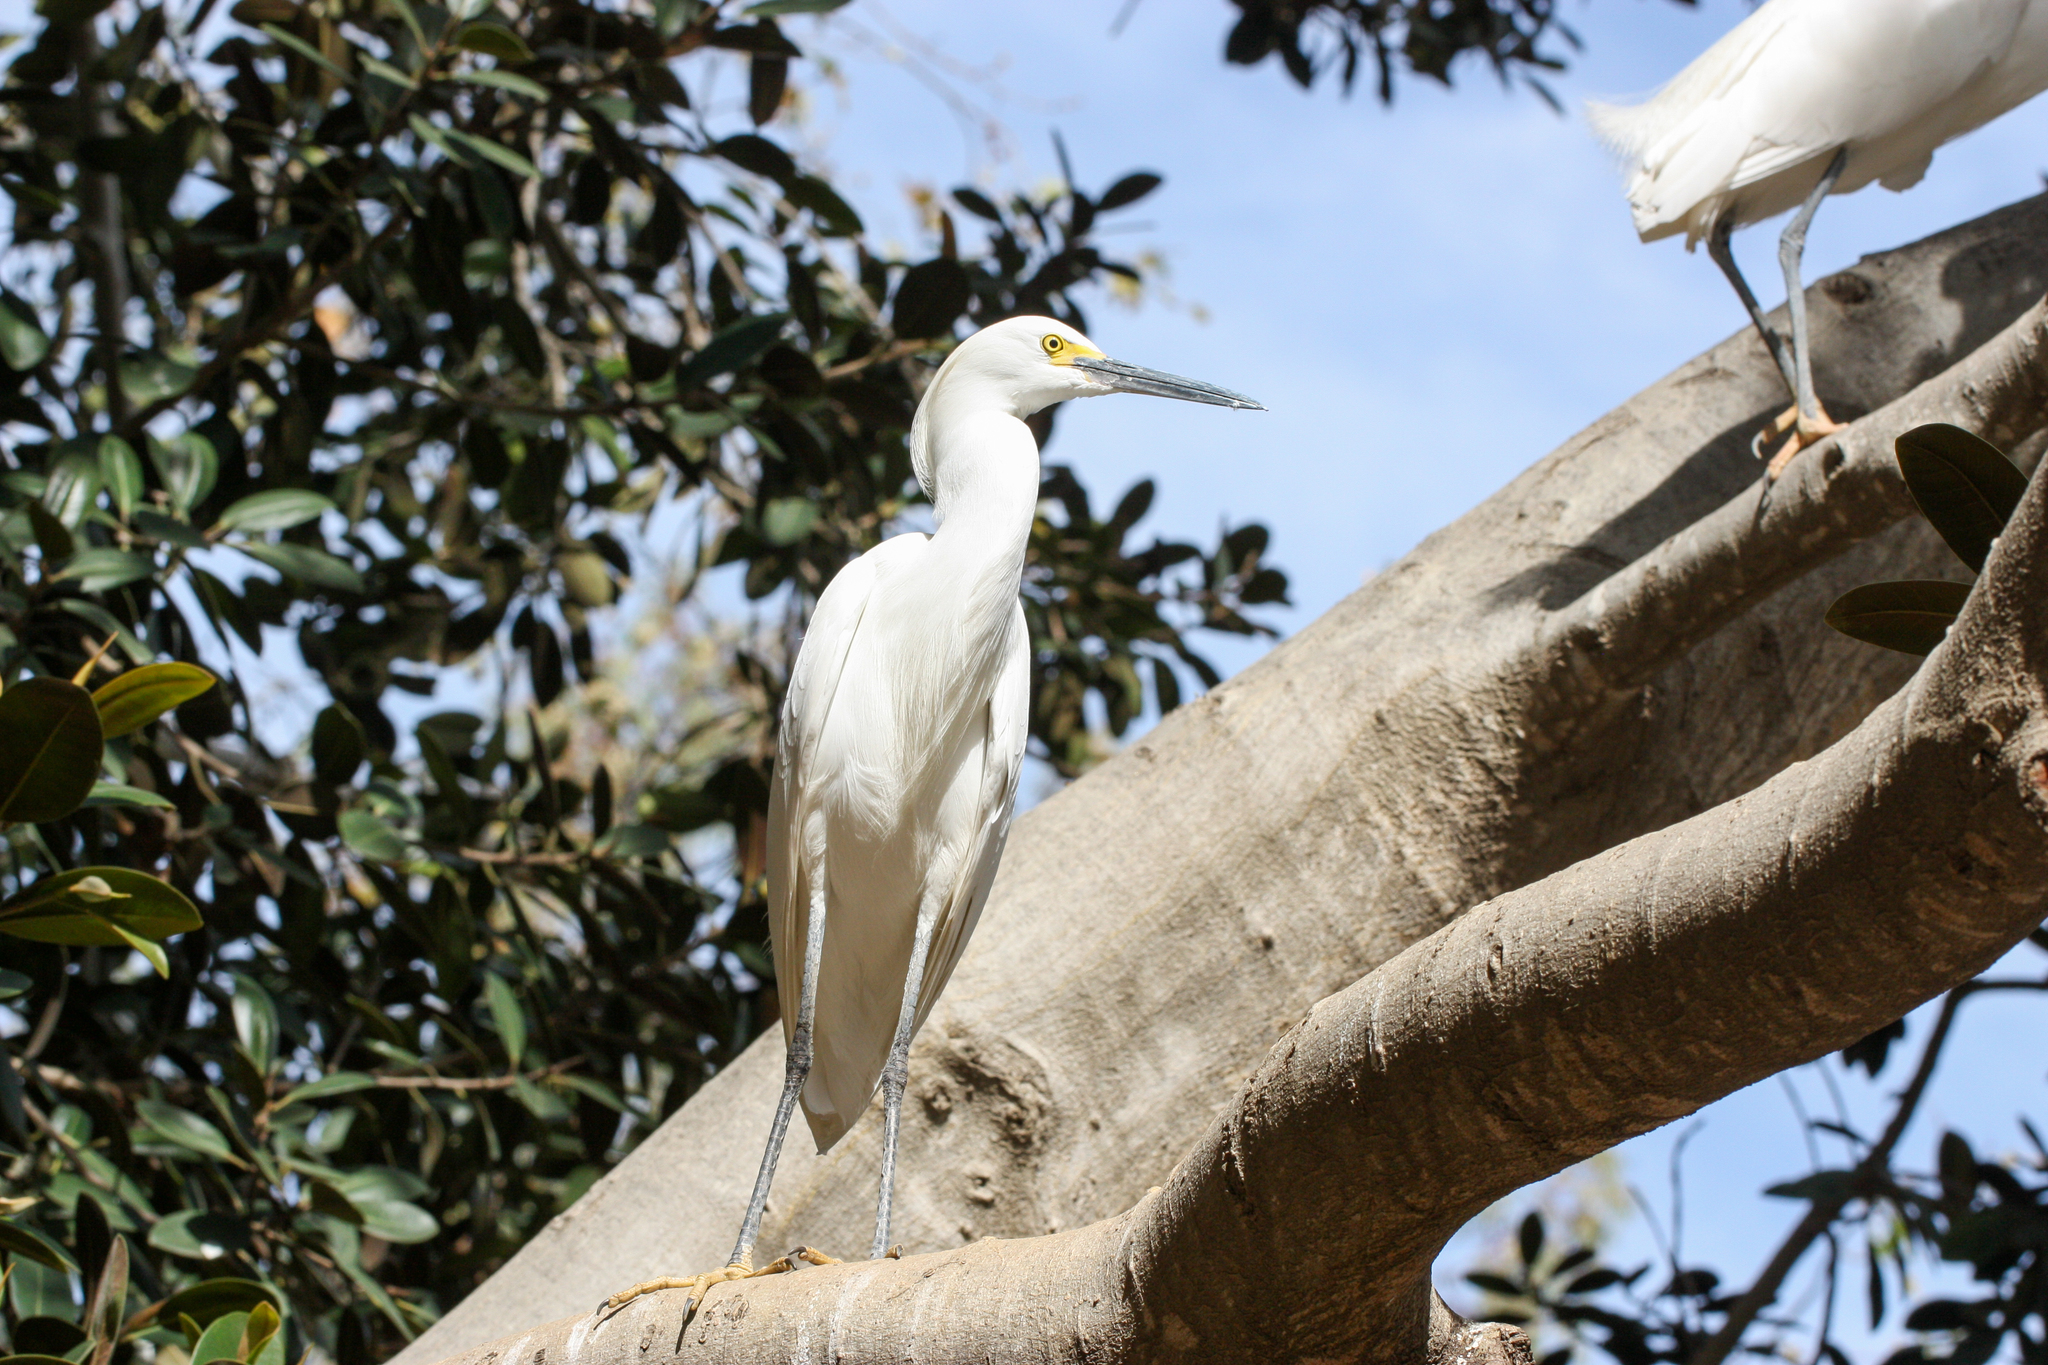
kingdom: Animalia
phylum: Chordata
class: Aves
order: Pelecaniformes
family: Ardeidae
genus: Egretta
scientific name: Egretta thula
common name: Snowy egret
